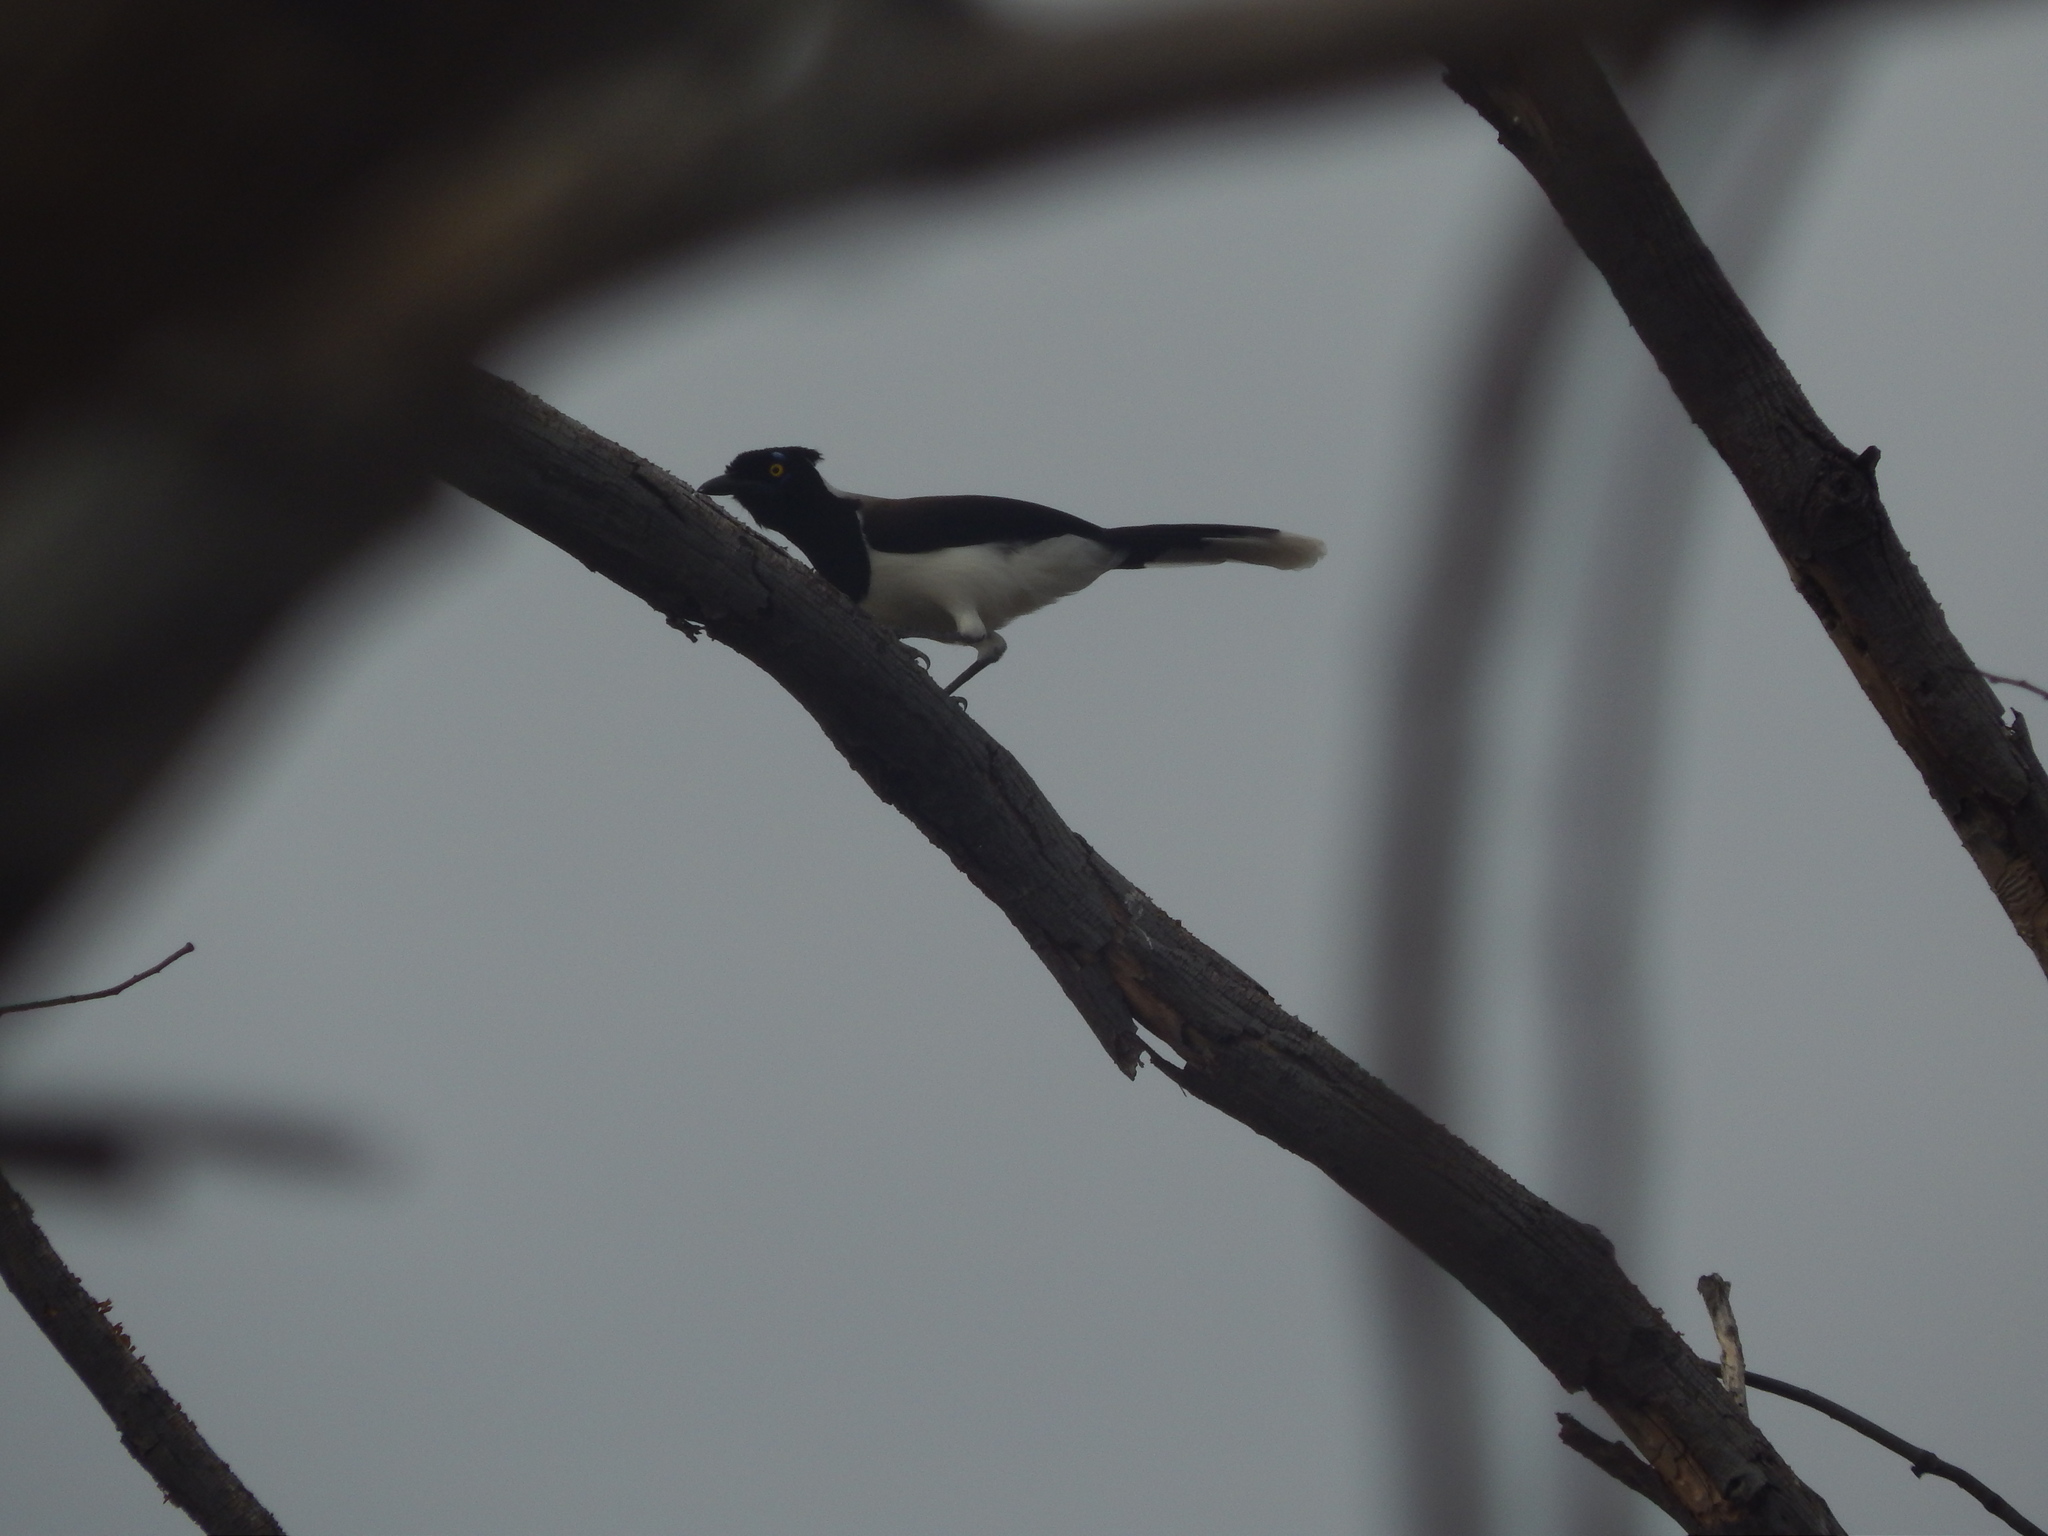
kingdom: Animalia
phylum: Chordata
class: Aves
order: Passeriformes
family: Corvidae
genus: Cyanocorax
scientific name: Cyanocorax cyanopogon
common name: White-naped jay
